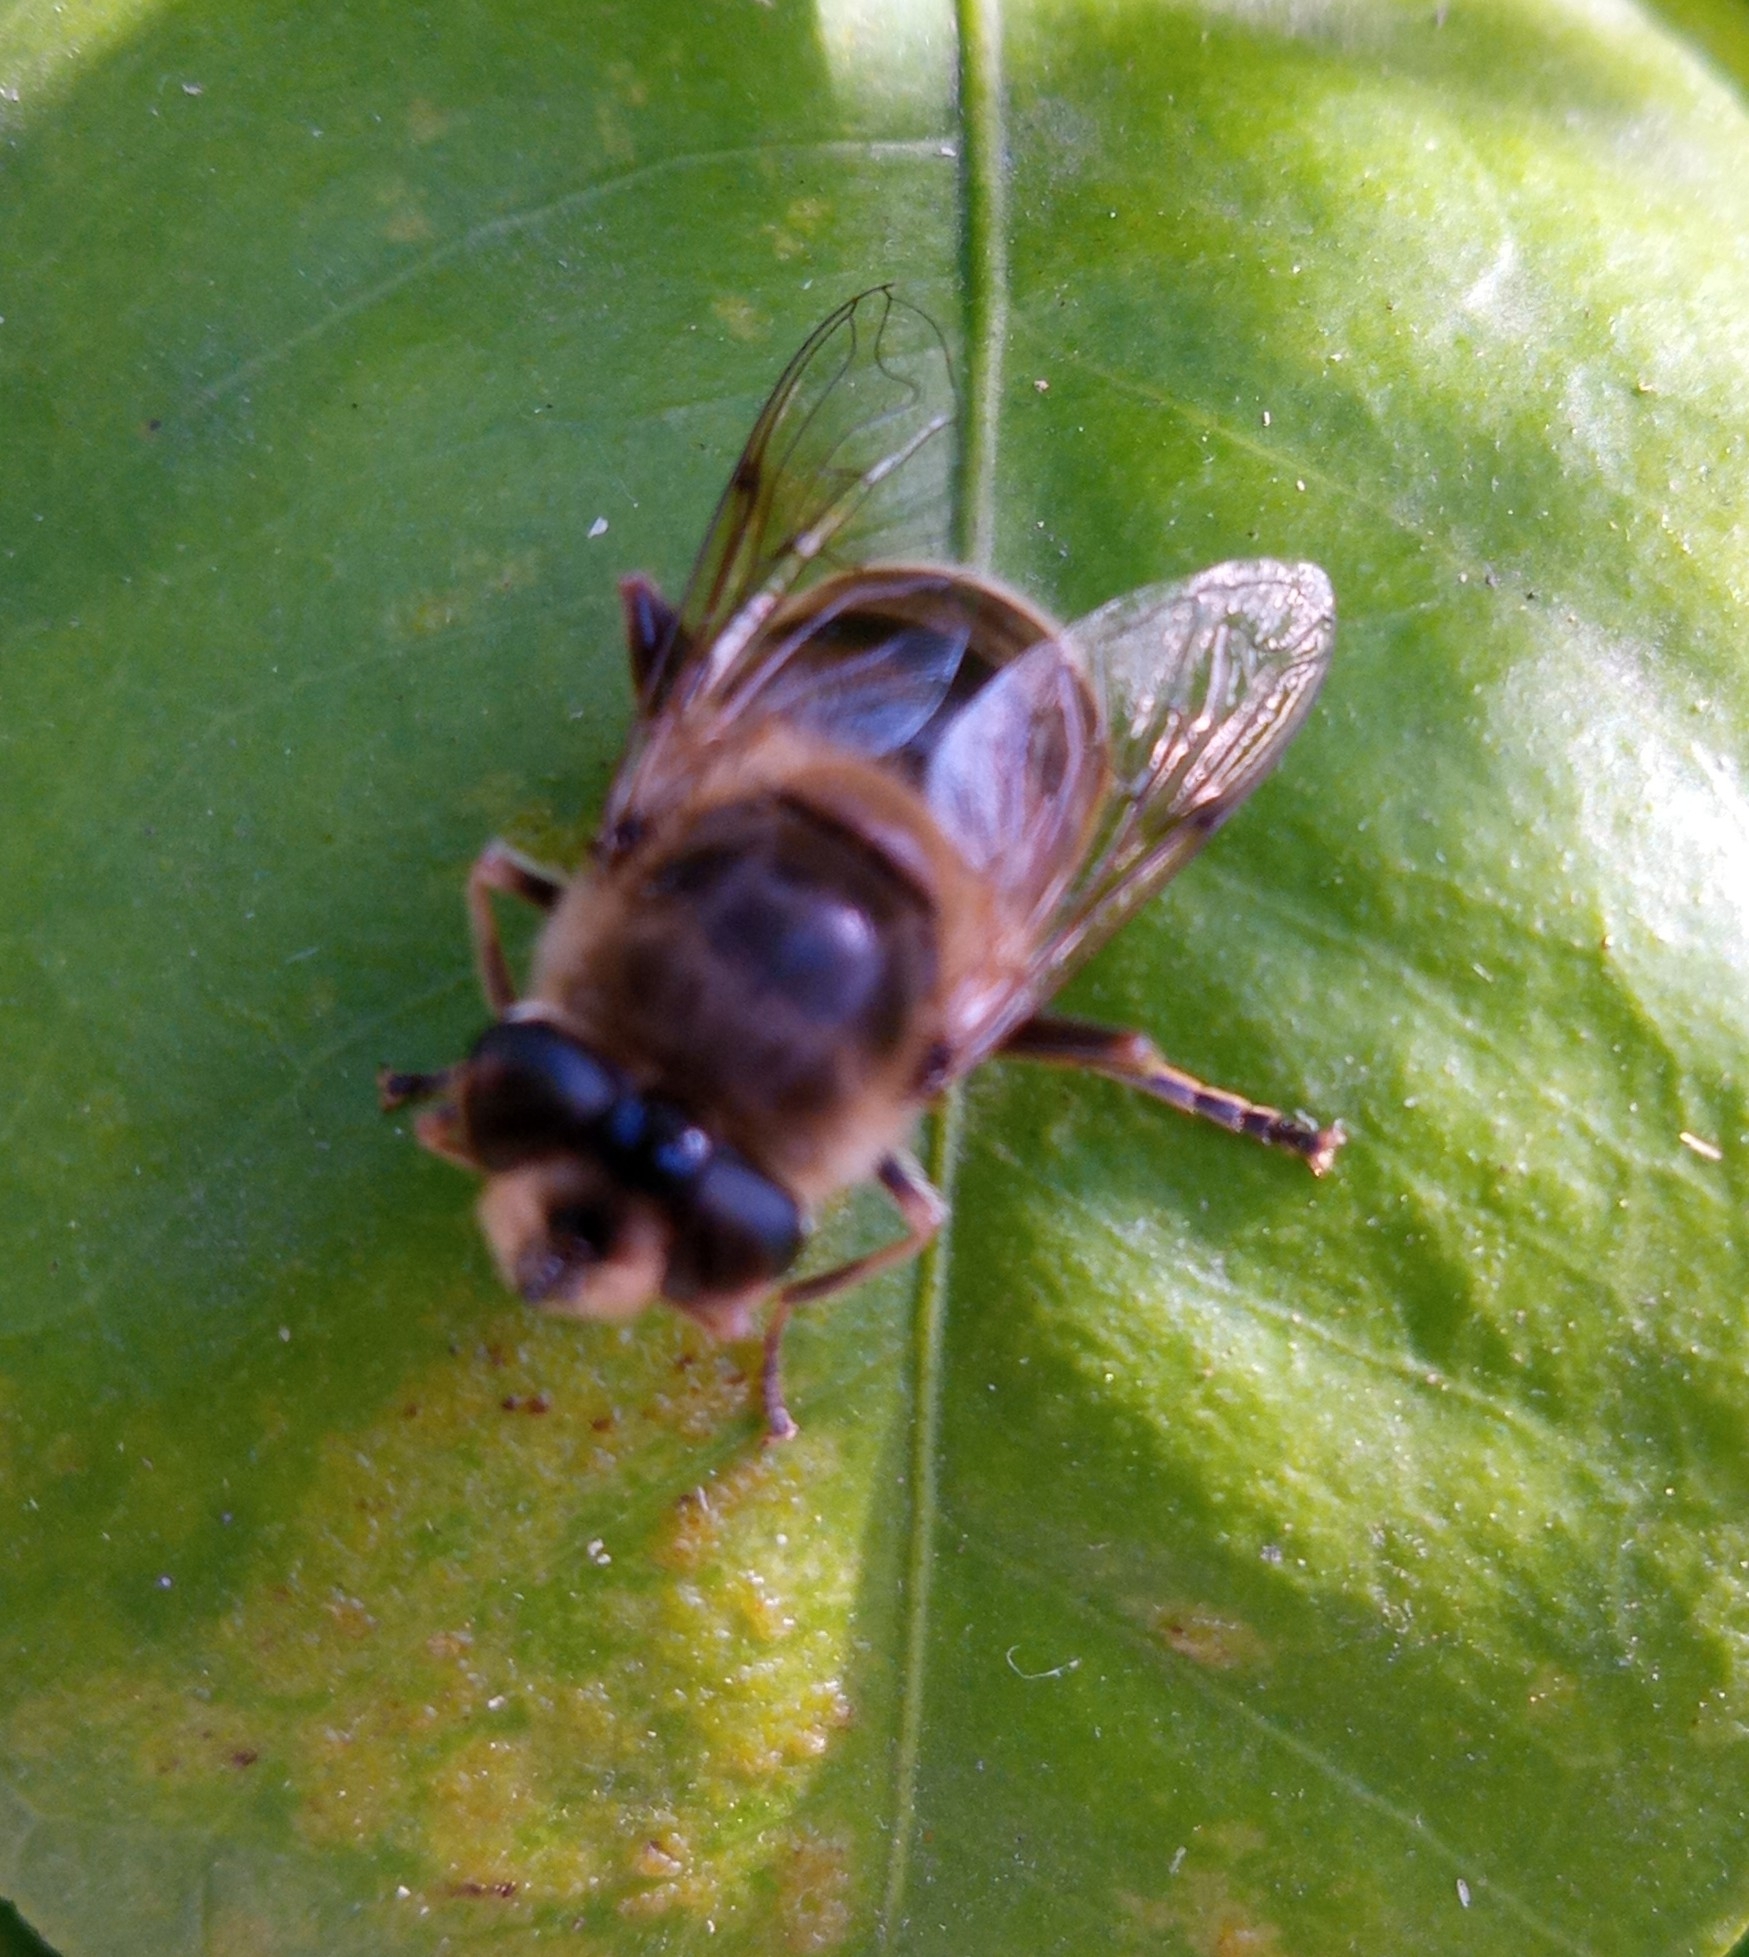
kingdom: Animalia
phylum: Arthropoda
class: Insecta
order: Diptera
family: Syrphidae
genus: Eristalis
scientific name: Eristalis tenax
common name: Drone fly
